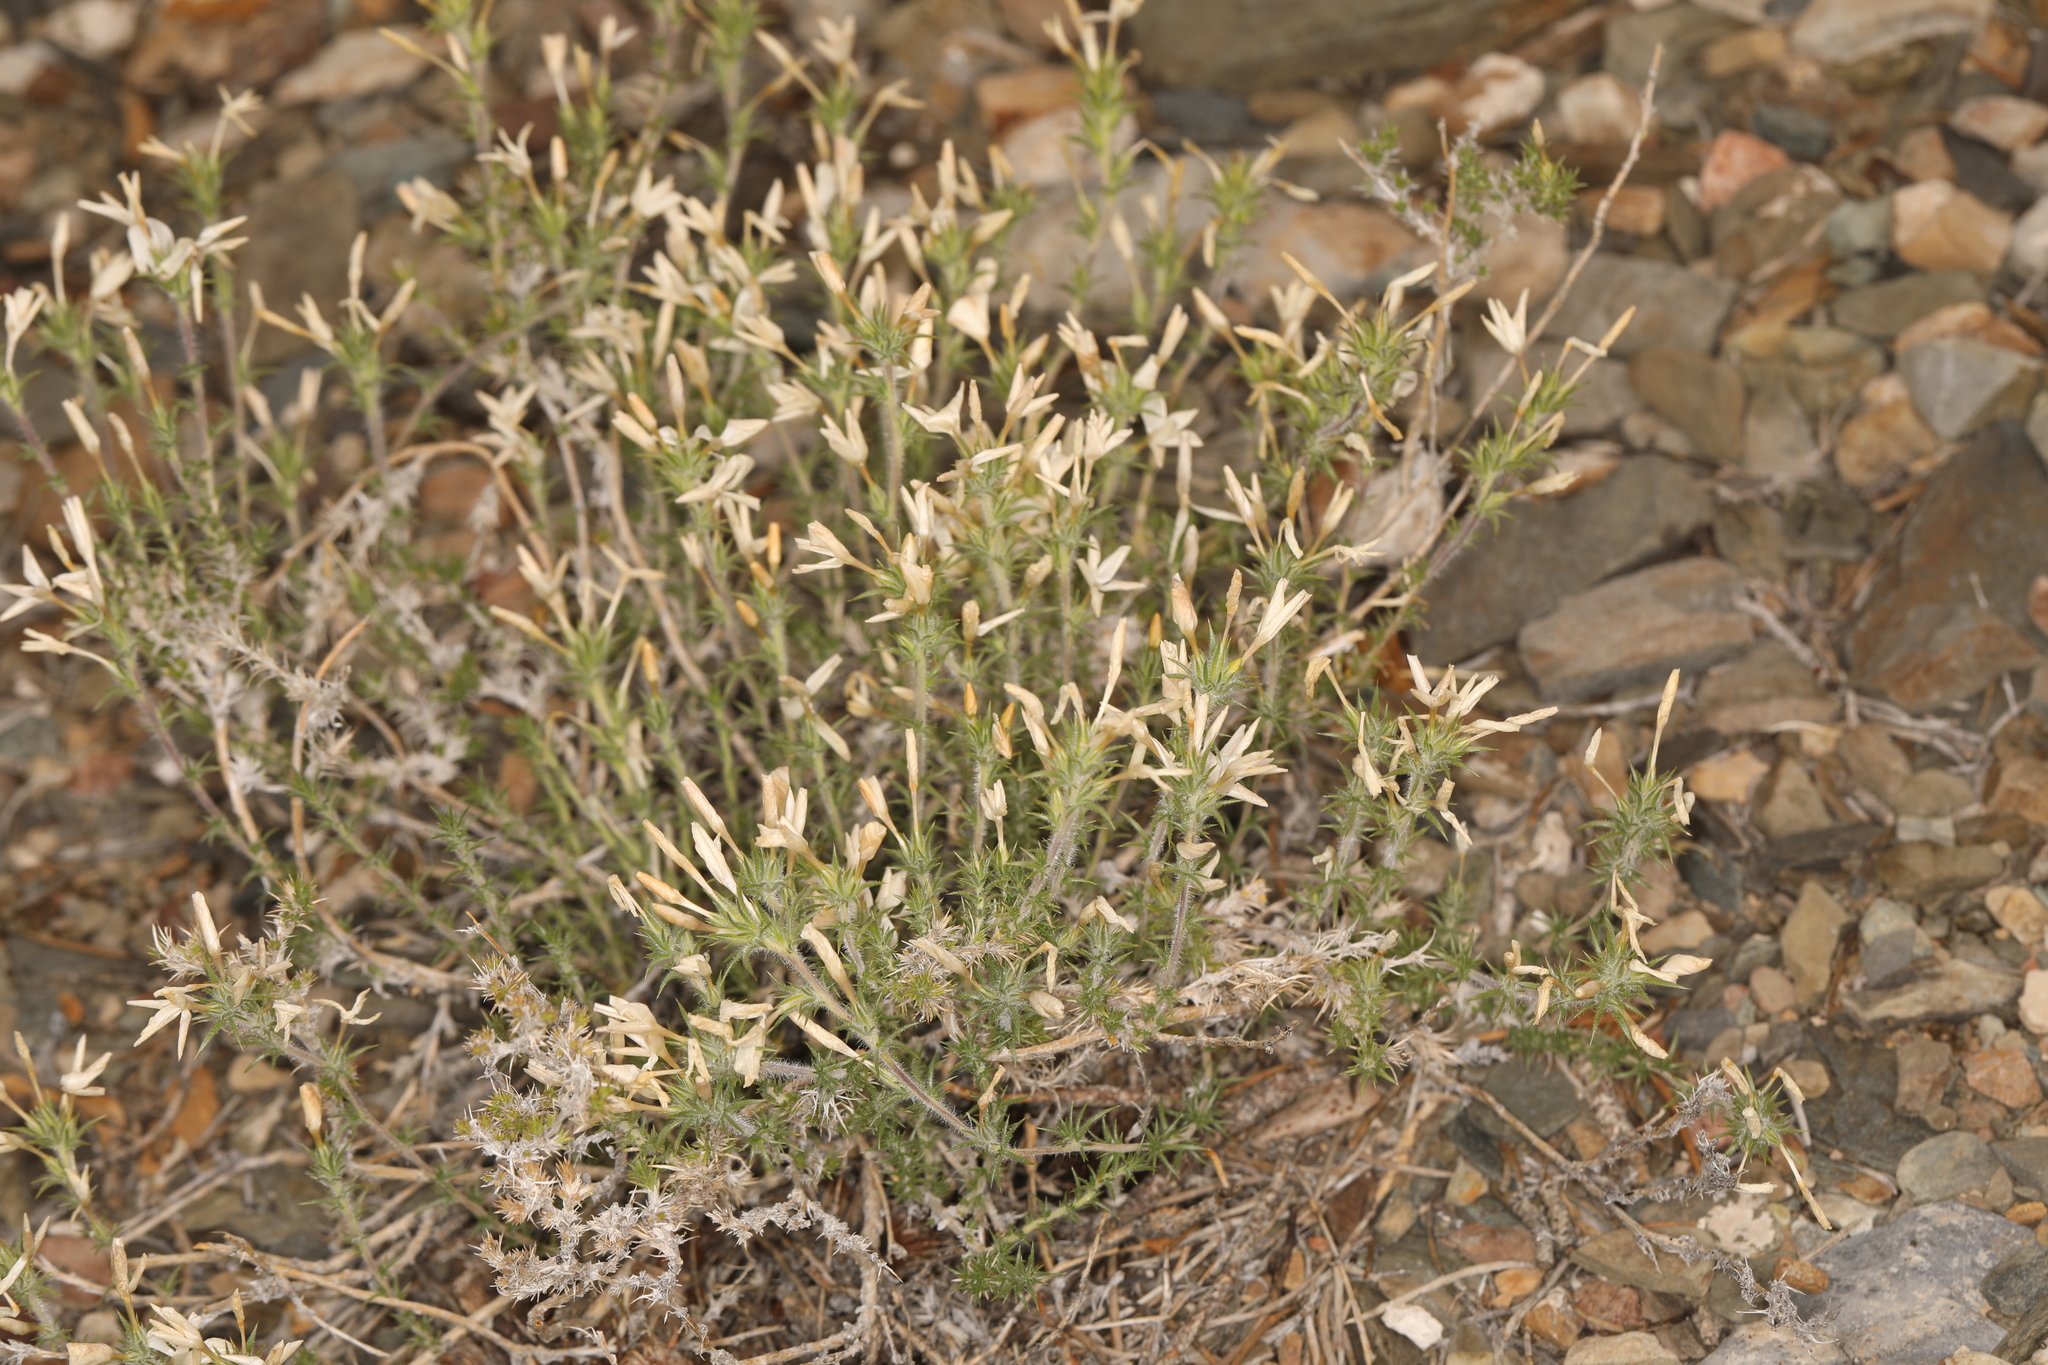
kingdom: Plantae
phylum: Tracheophyta
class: Magnoliopsida
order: Ericales
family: Polemoniaceae
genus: Linanthus
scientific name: Linanthus pungens
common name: Granite prickly phlox
